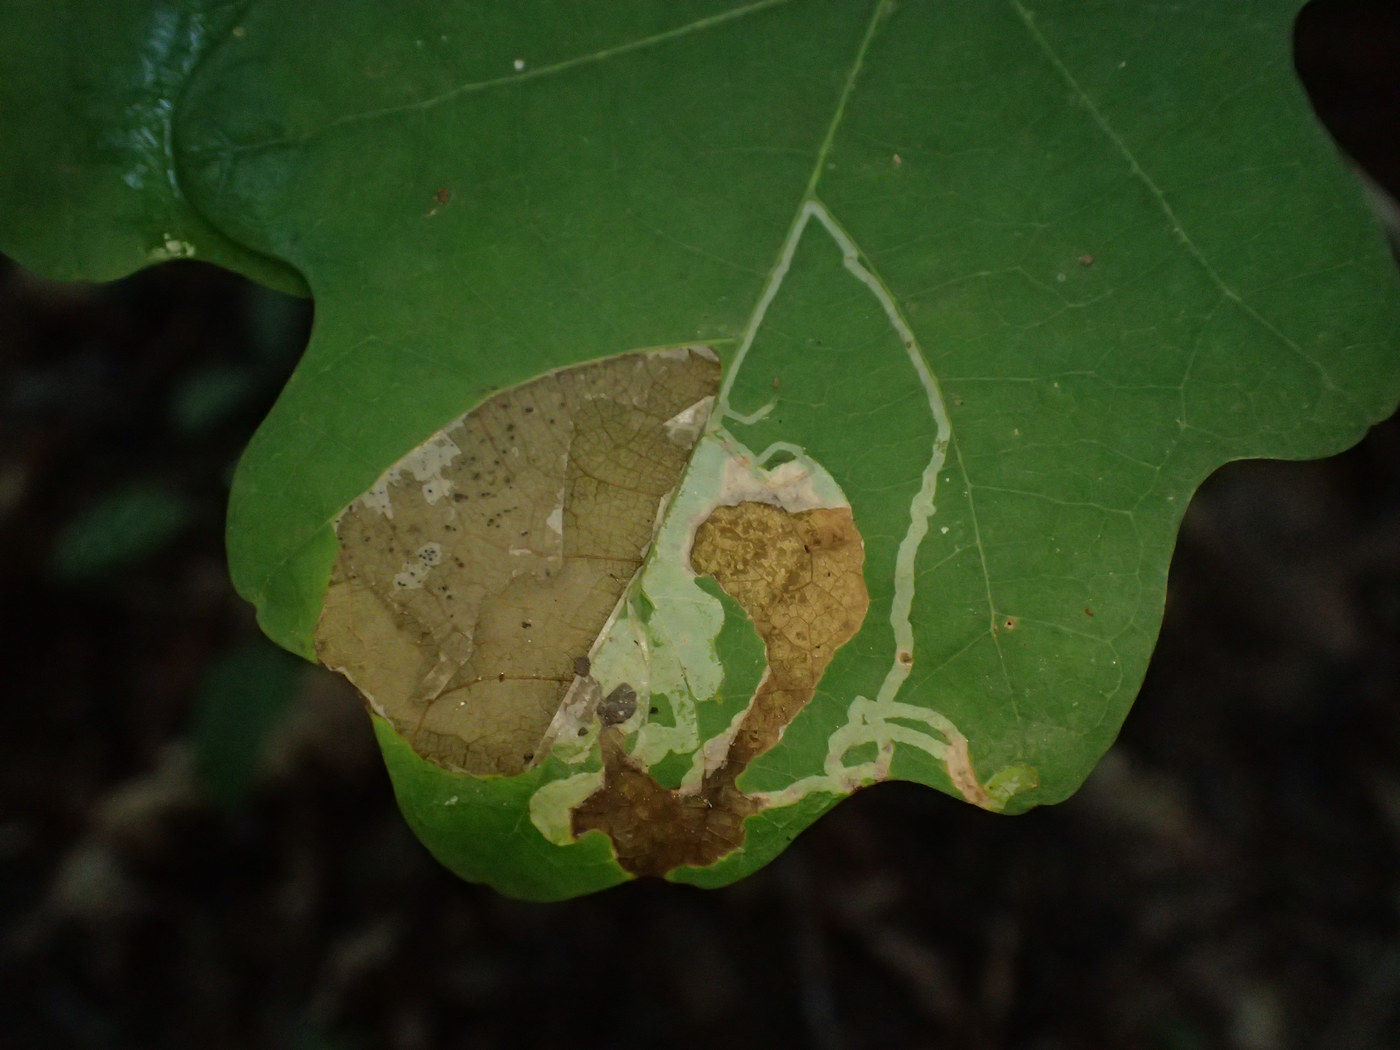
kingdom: Animalia
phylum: Arthropoda
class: Insecta
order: Lepidoptera
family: Gracillariidae
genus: Cryptolectica
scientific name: Cryptolectica
